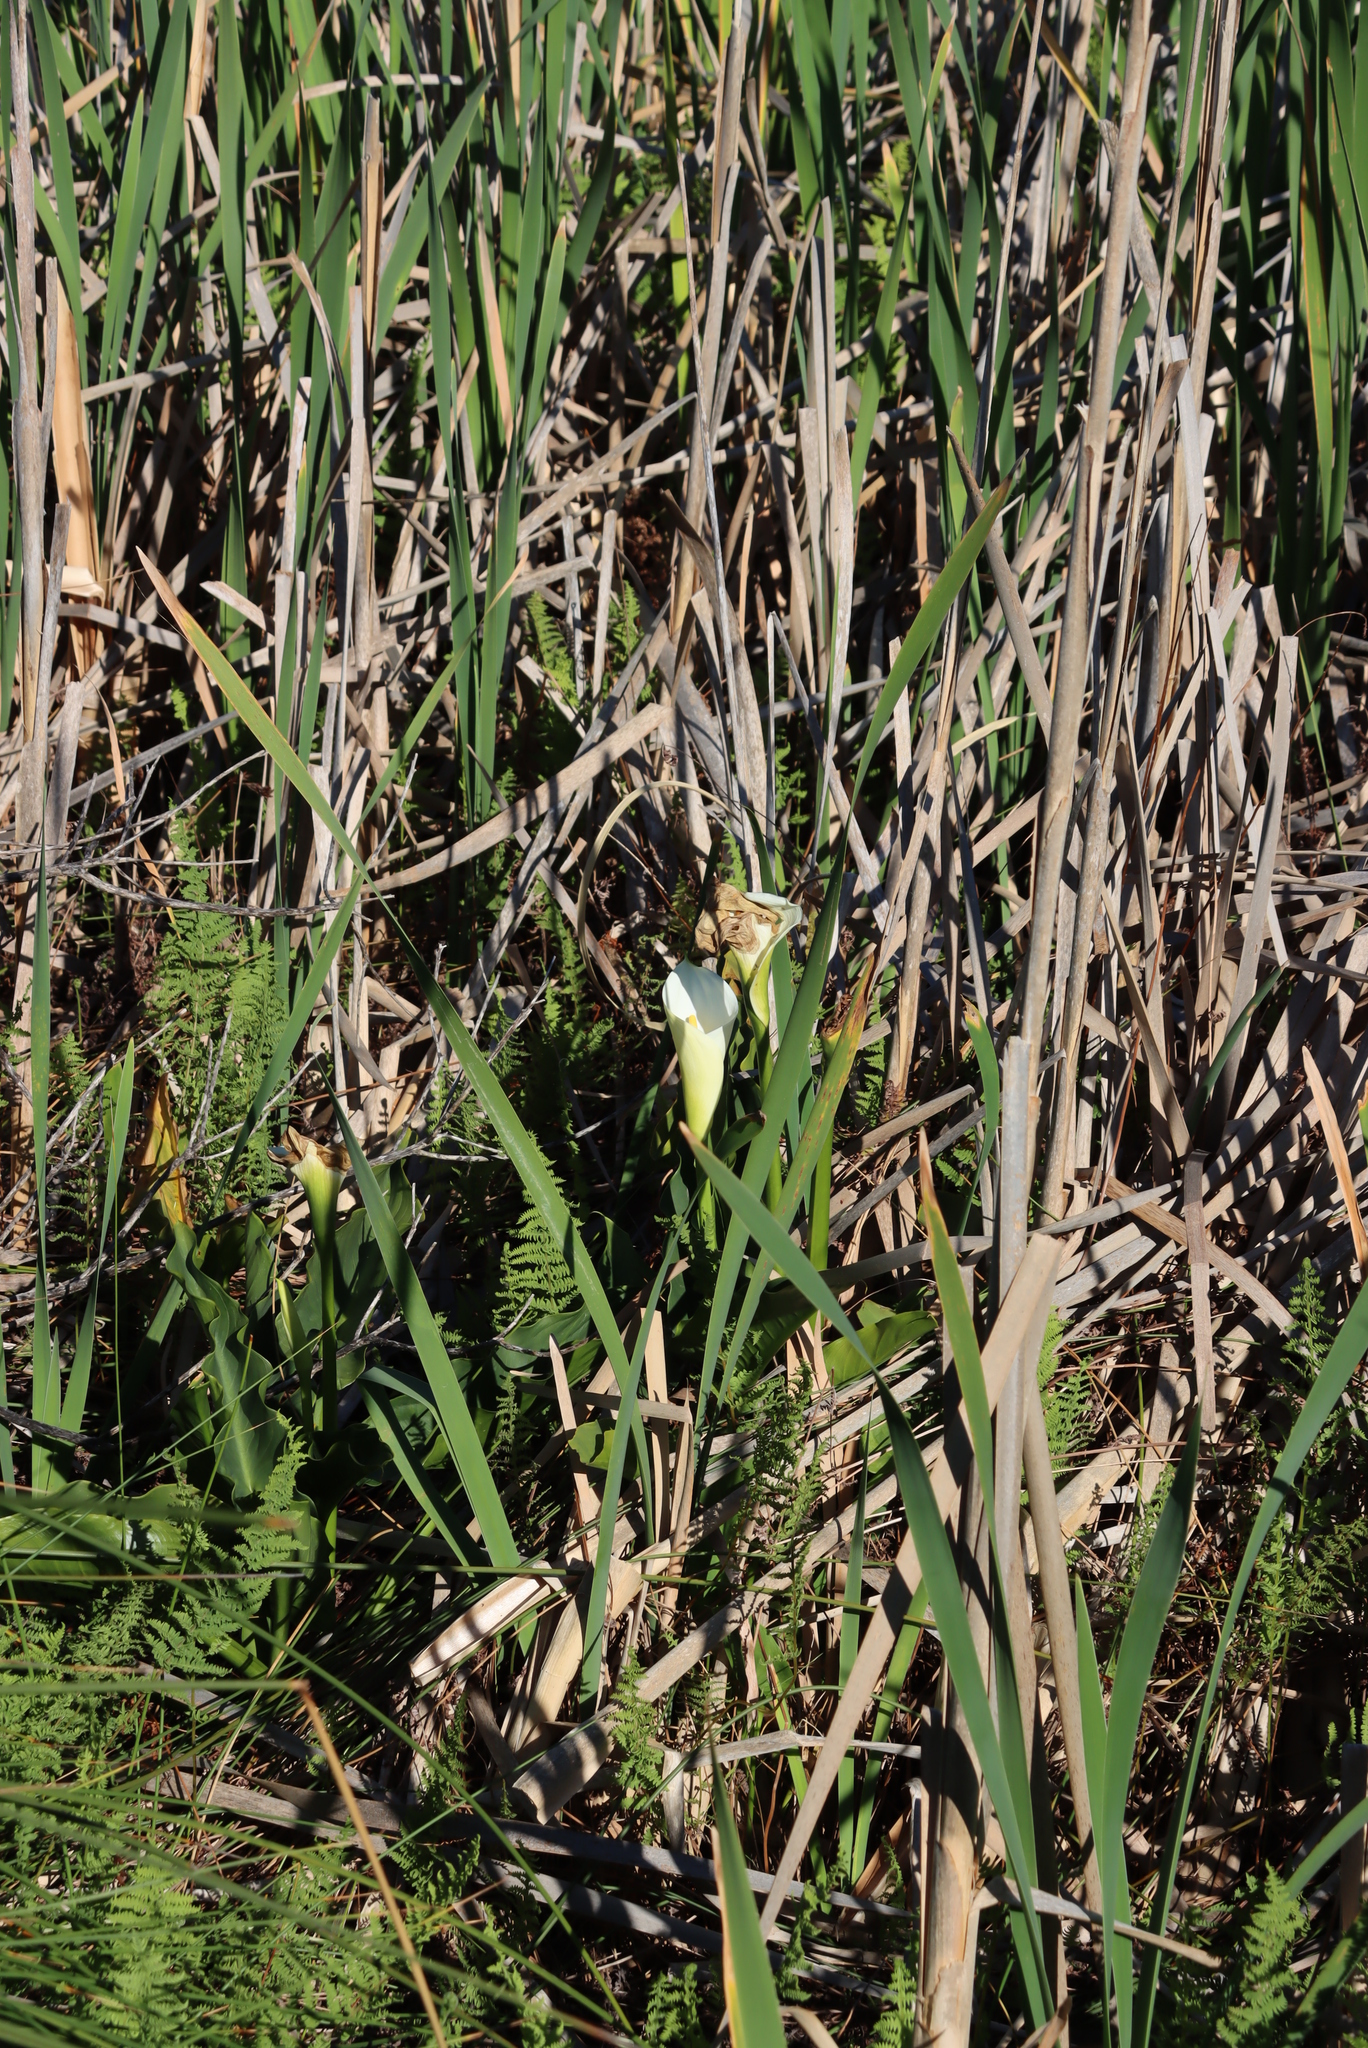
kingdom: Plantae
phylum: Tracheophyta
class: Liliopsida
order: Alismatales
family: Araceae
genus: Zantedeschia
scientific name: Zantedeschia aethiopica
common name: Altar-lily
